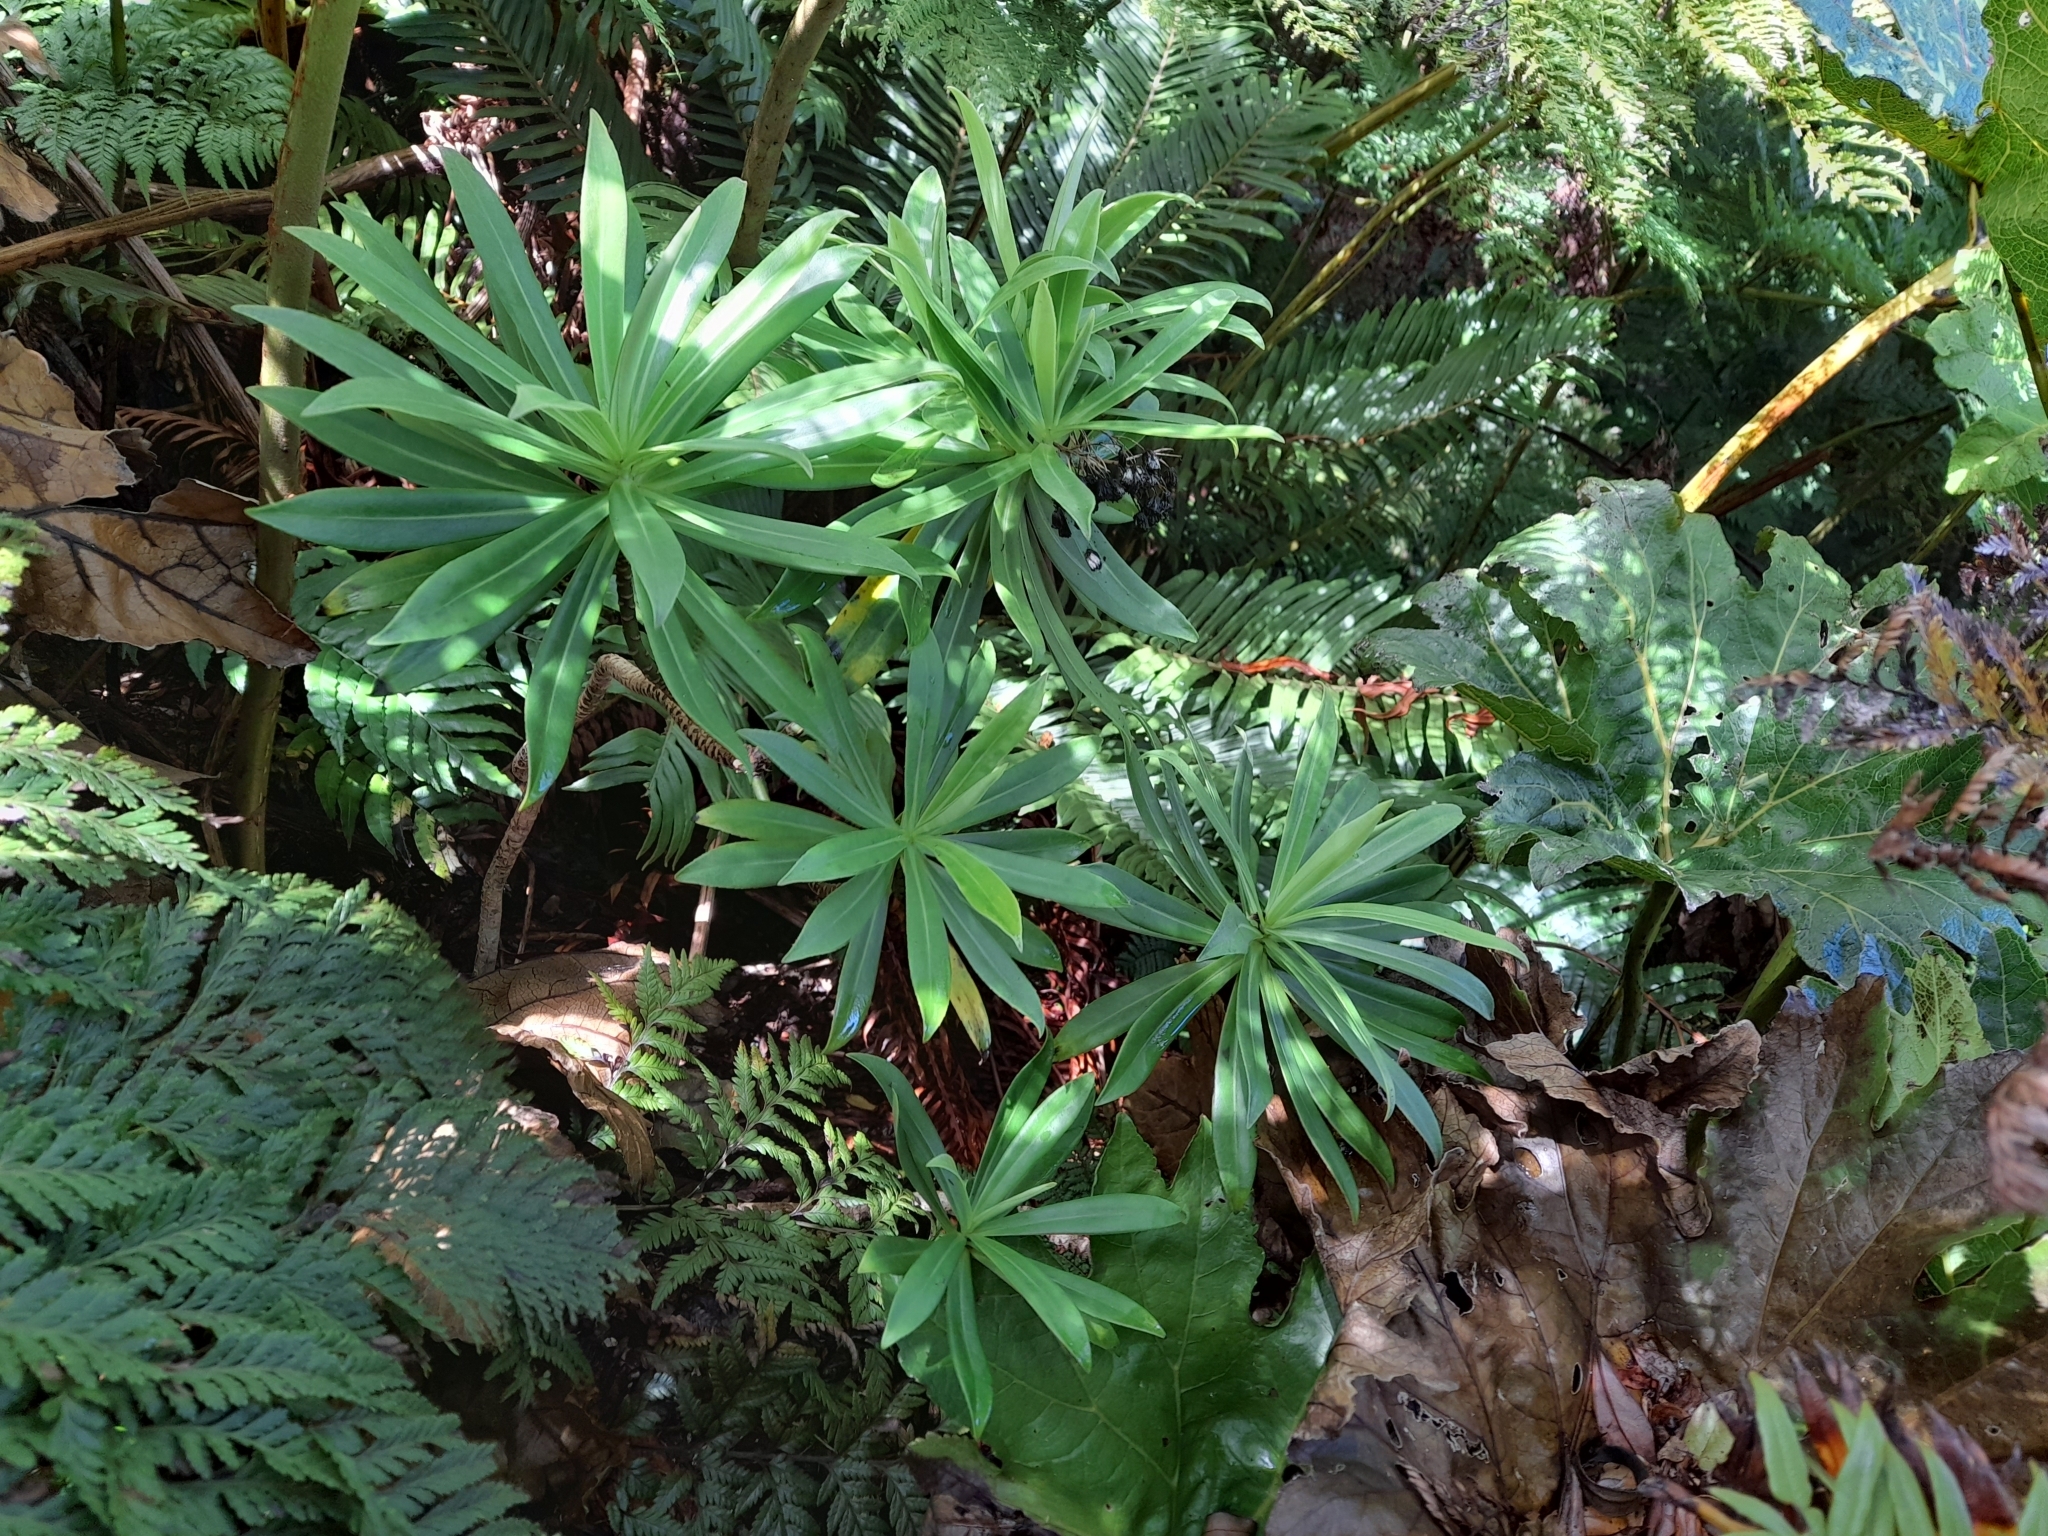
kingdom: Plantae
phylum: Tracheophyta
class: Magnoliopsida
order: Asterales
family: Asteraceae
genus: Robinsonia
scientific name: Robinsonia evenia
